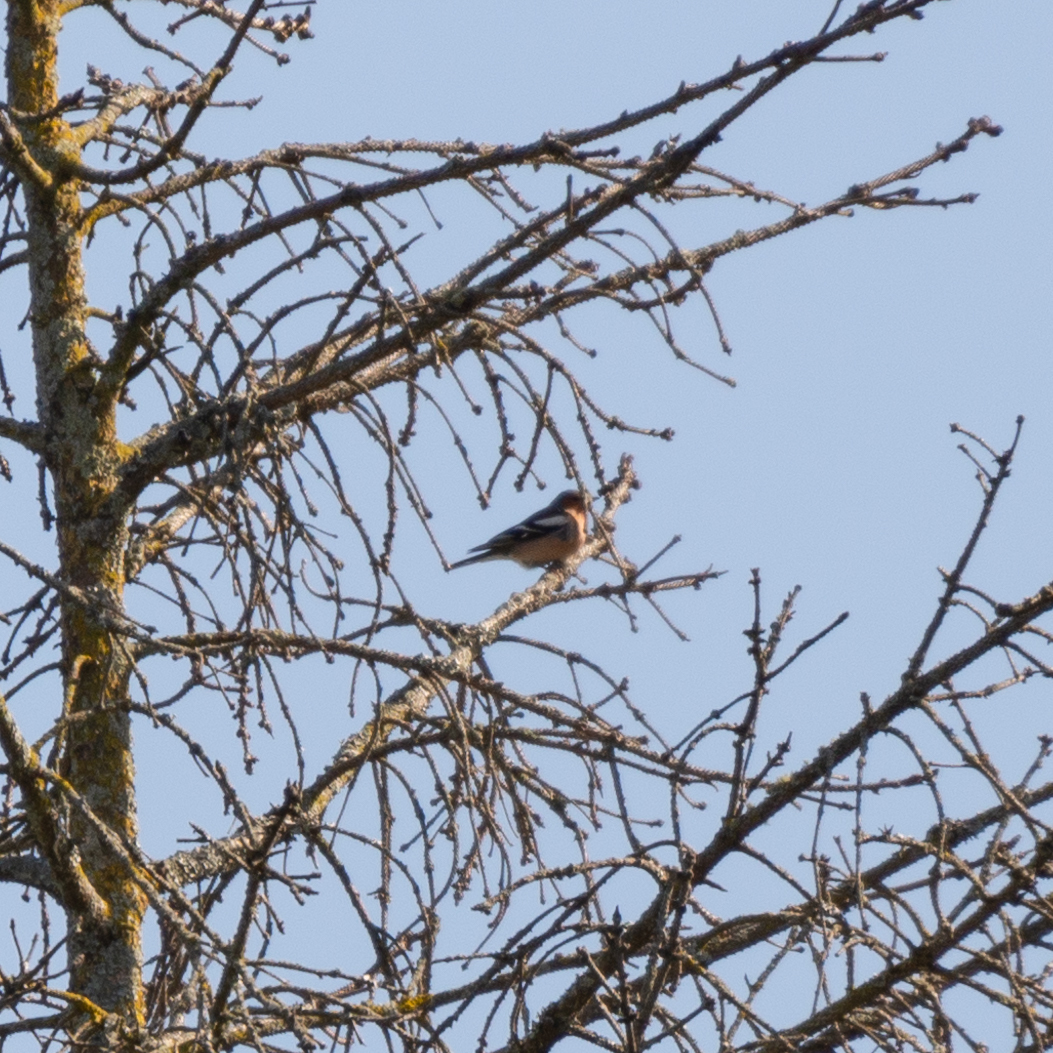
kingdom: Animalia
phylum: Chordata
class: Aves
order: Passeriformes
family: Fringillidae
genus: Fringilla
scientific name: Fringilla coelebs
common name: Common chaffinch
